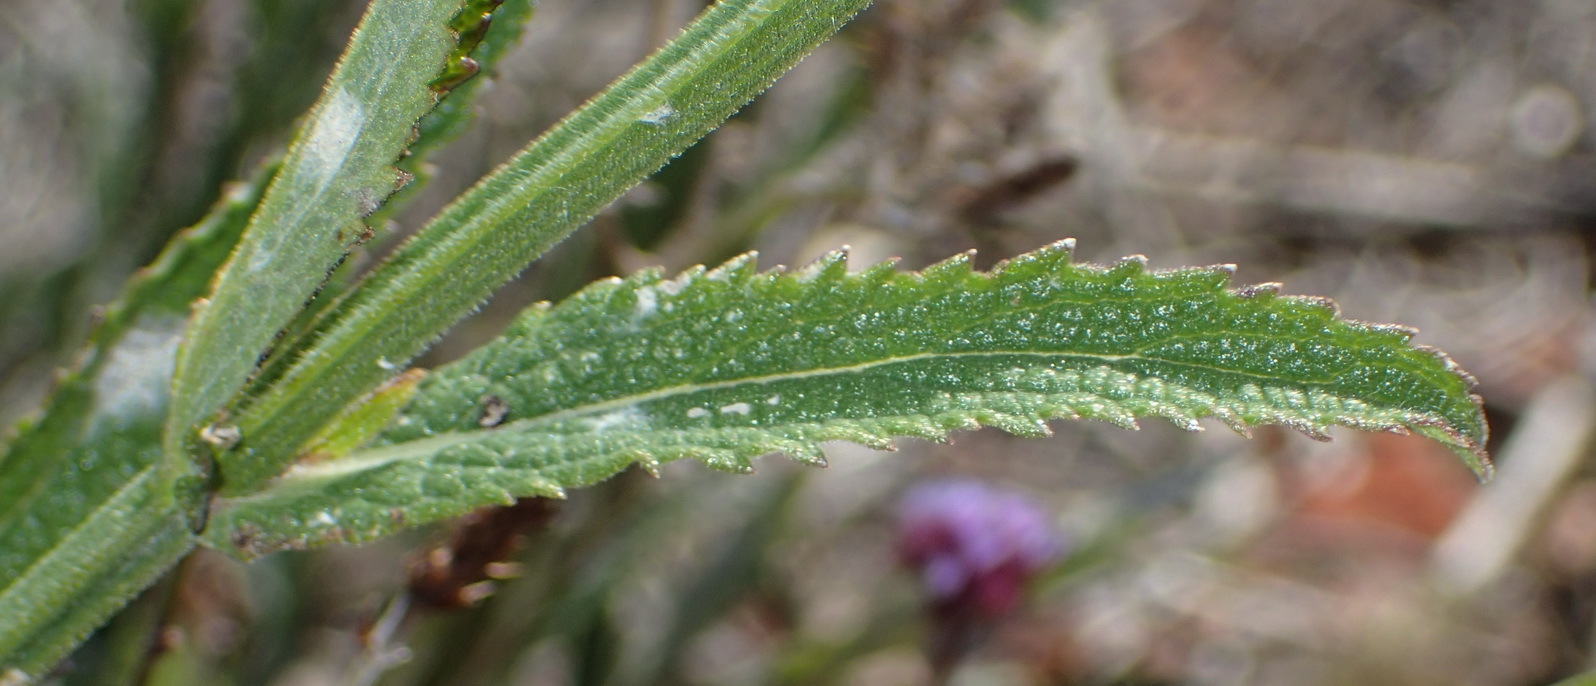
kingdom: Plantae
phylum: Tracheophyta
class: Magnoliopsida
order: Lamiales
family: Verbenaceae
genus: Verbena
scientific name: Verbena bonariensis
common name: Purpletop vervain
